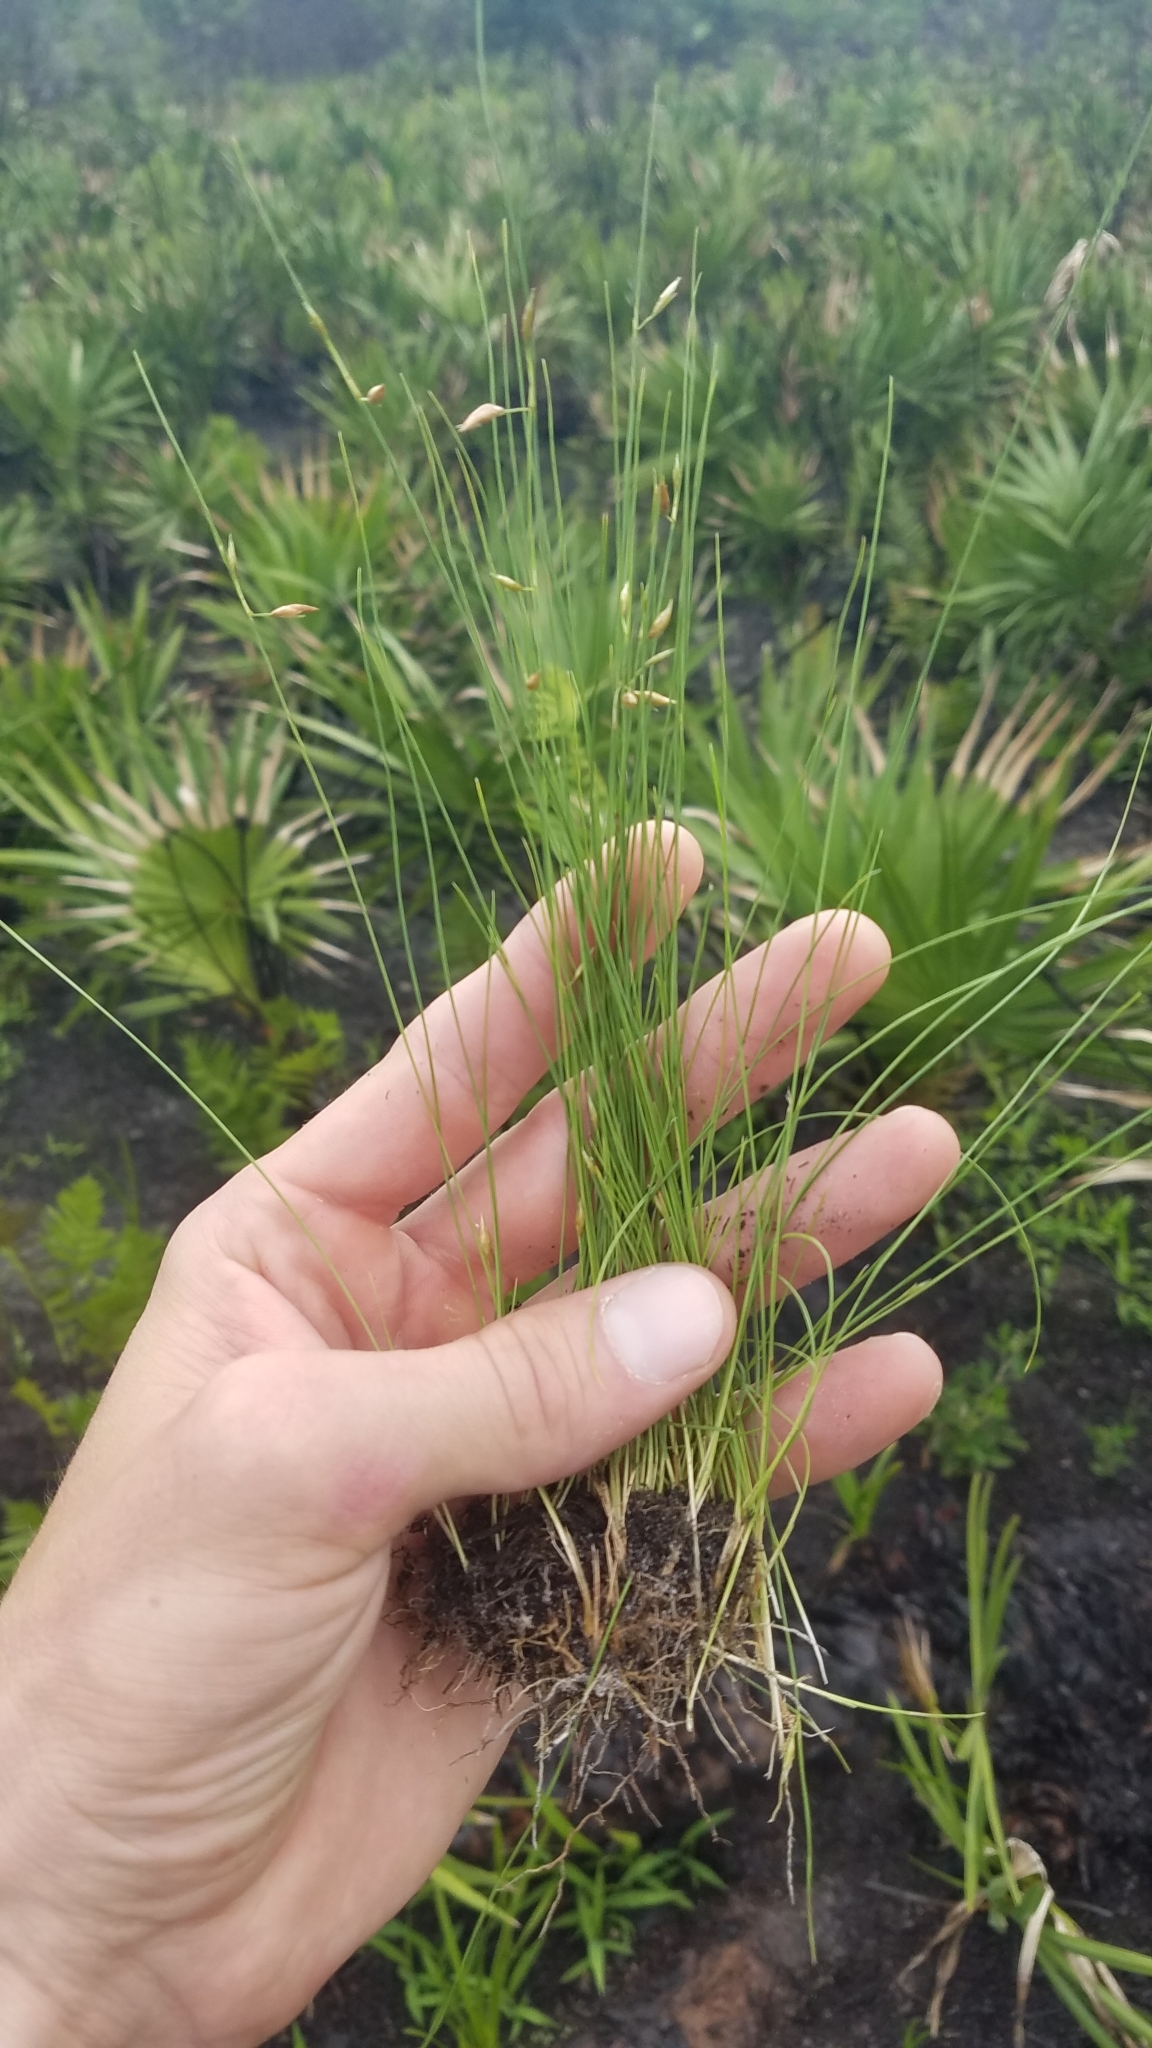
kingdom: Plantae
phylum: Tracheophyta
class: Liliopsida
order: Poales
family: Cyperaceae
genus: Rhynchospora
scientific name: Rhynchospora galeana
